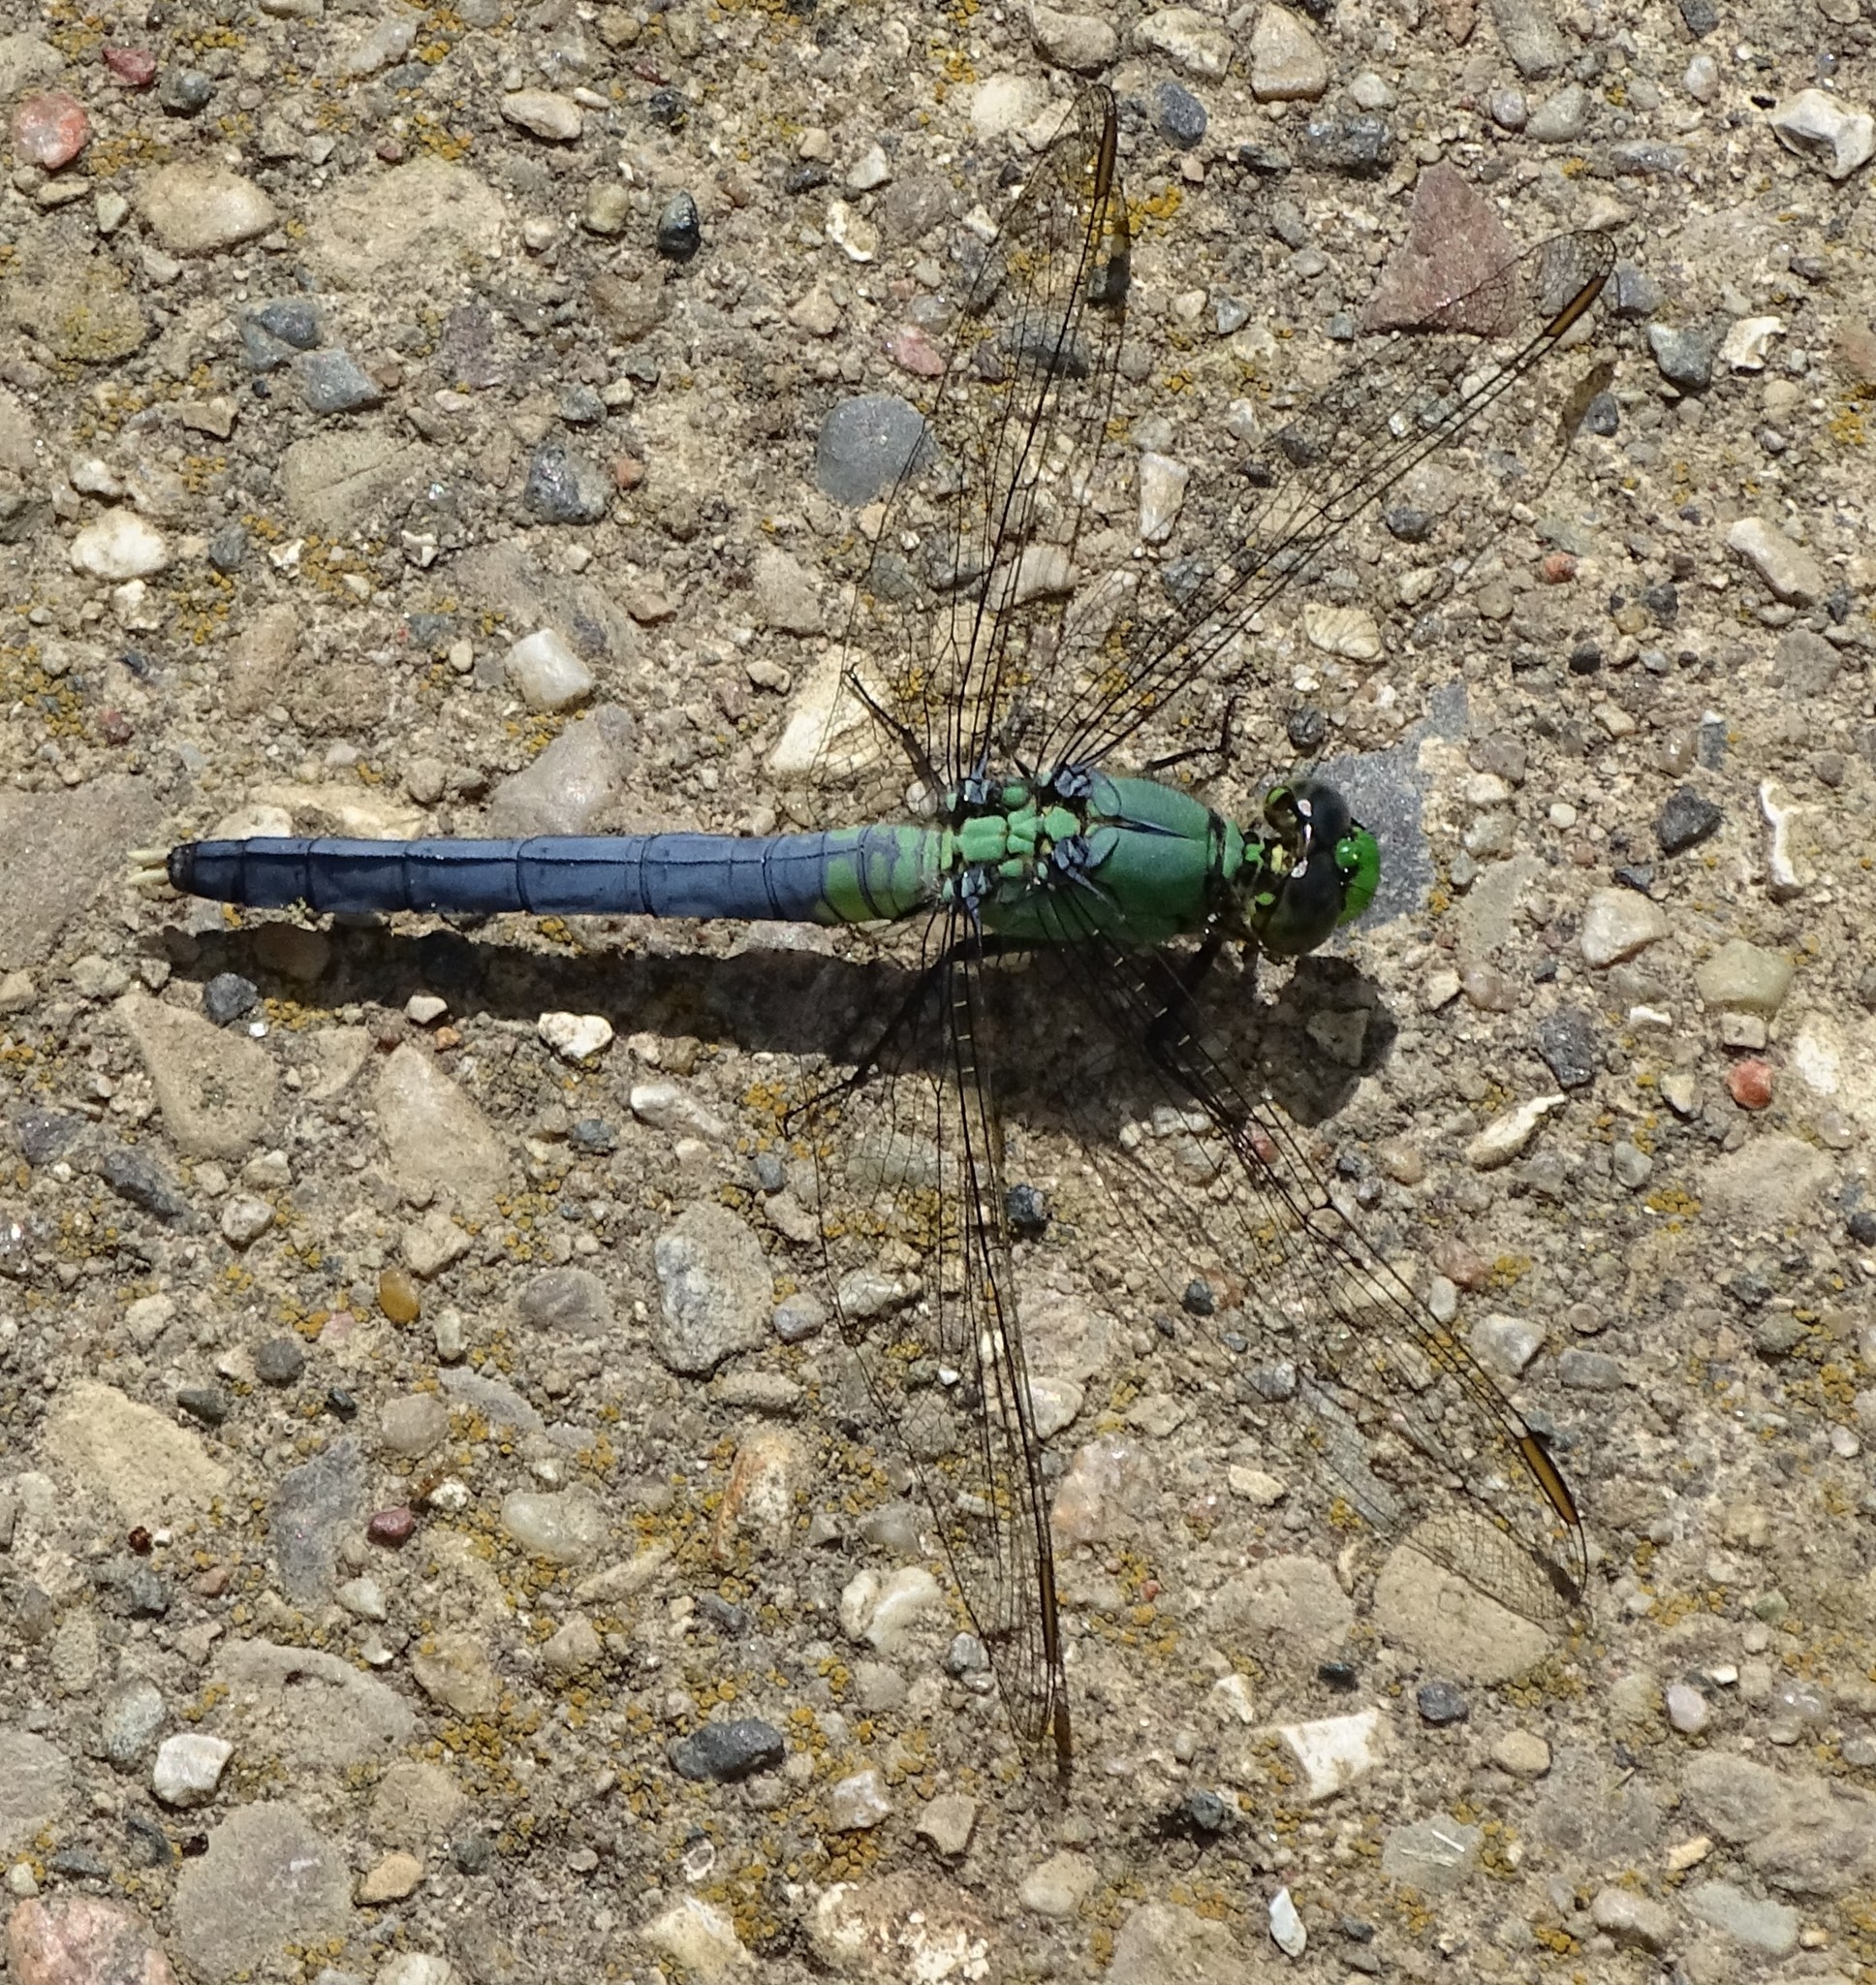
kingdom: Animalia
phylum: Arthropoda
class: Insecta
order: Odonata
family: Libellulidae
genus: Erythemis
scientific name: Erythemis simplicicollis
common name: Eastern pondhawk
